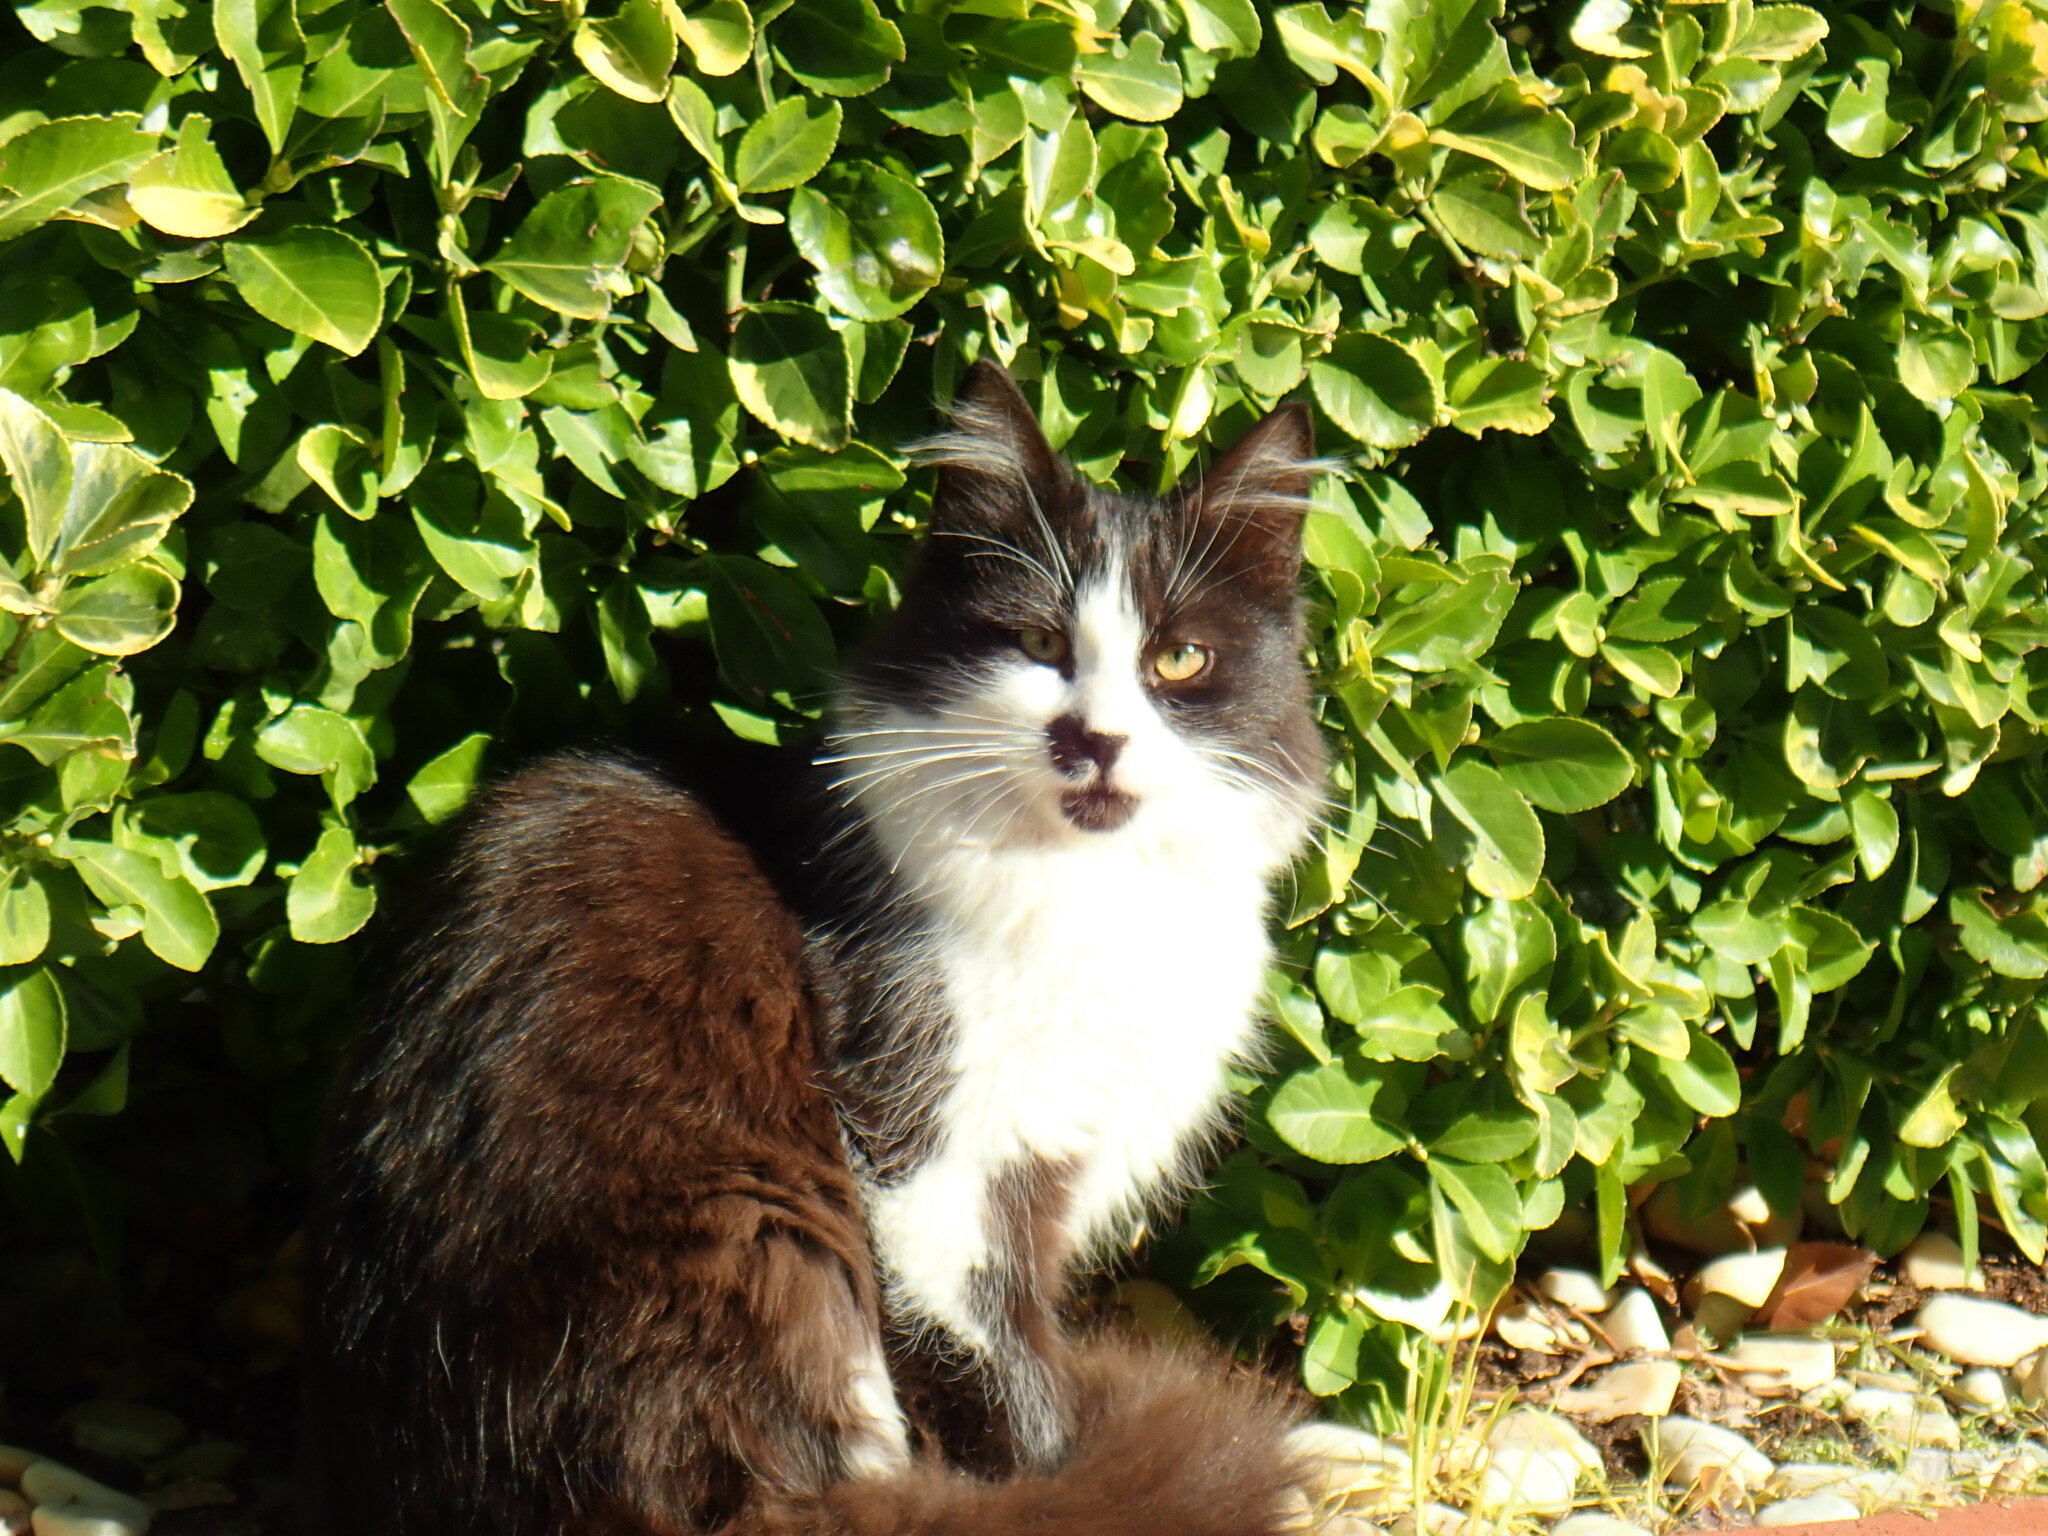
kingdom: Animalia
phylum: Chordata
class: Mammalia
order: Carnivora
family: Felidae
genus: Felis
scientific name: Felis catus
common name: Domestic cat
